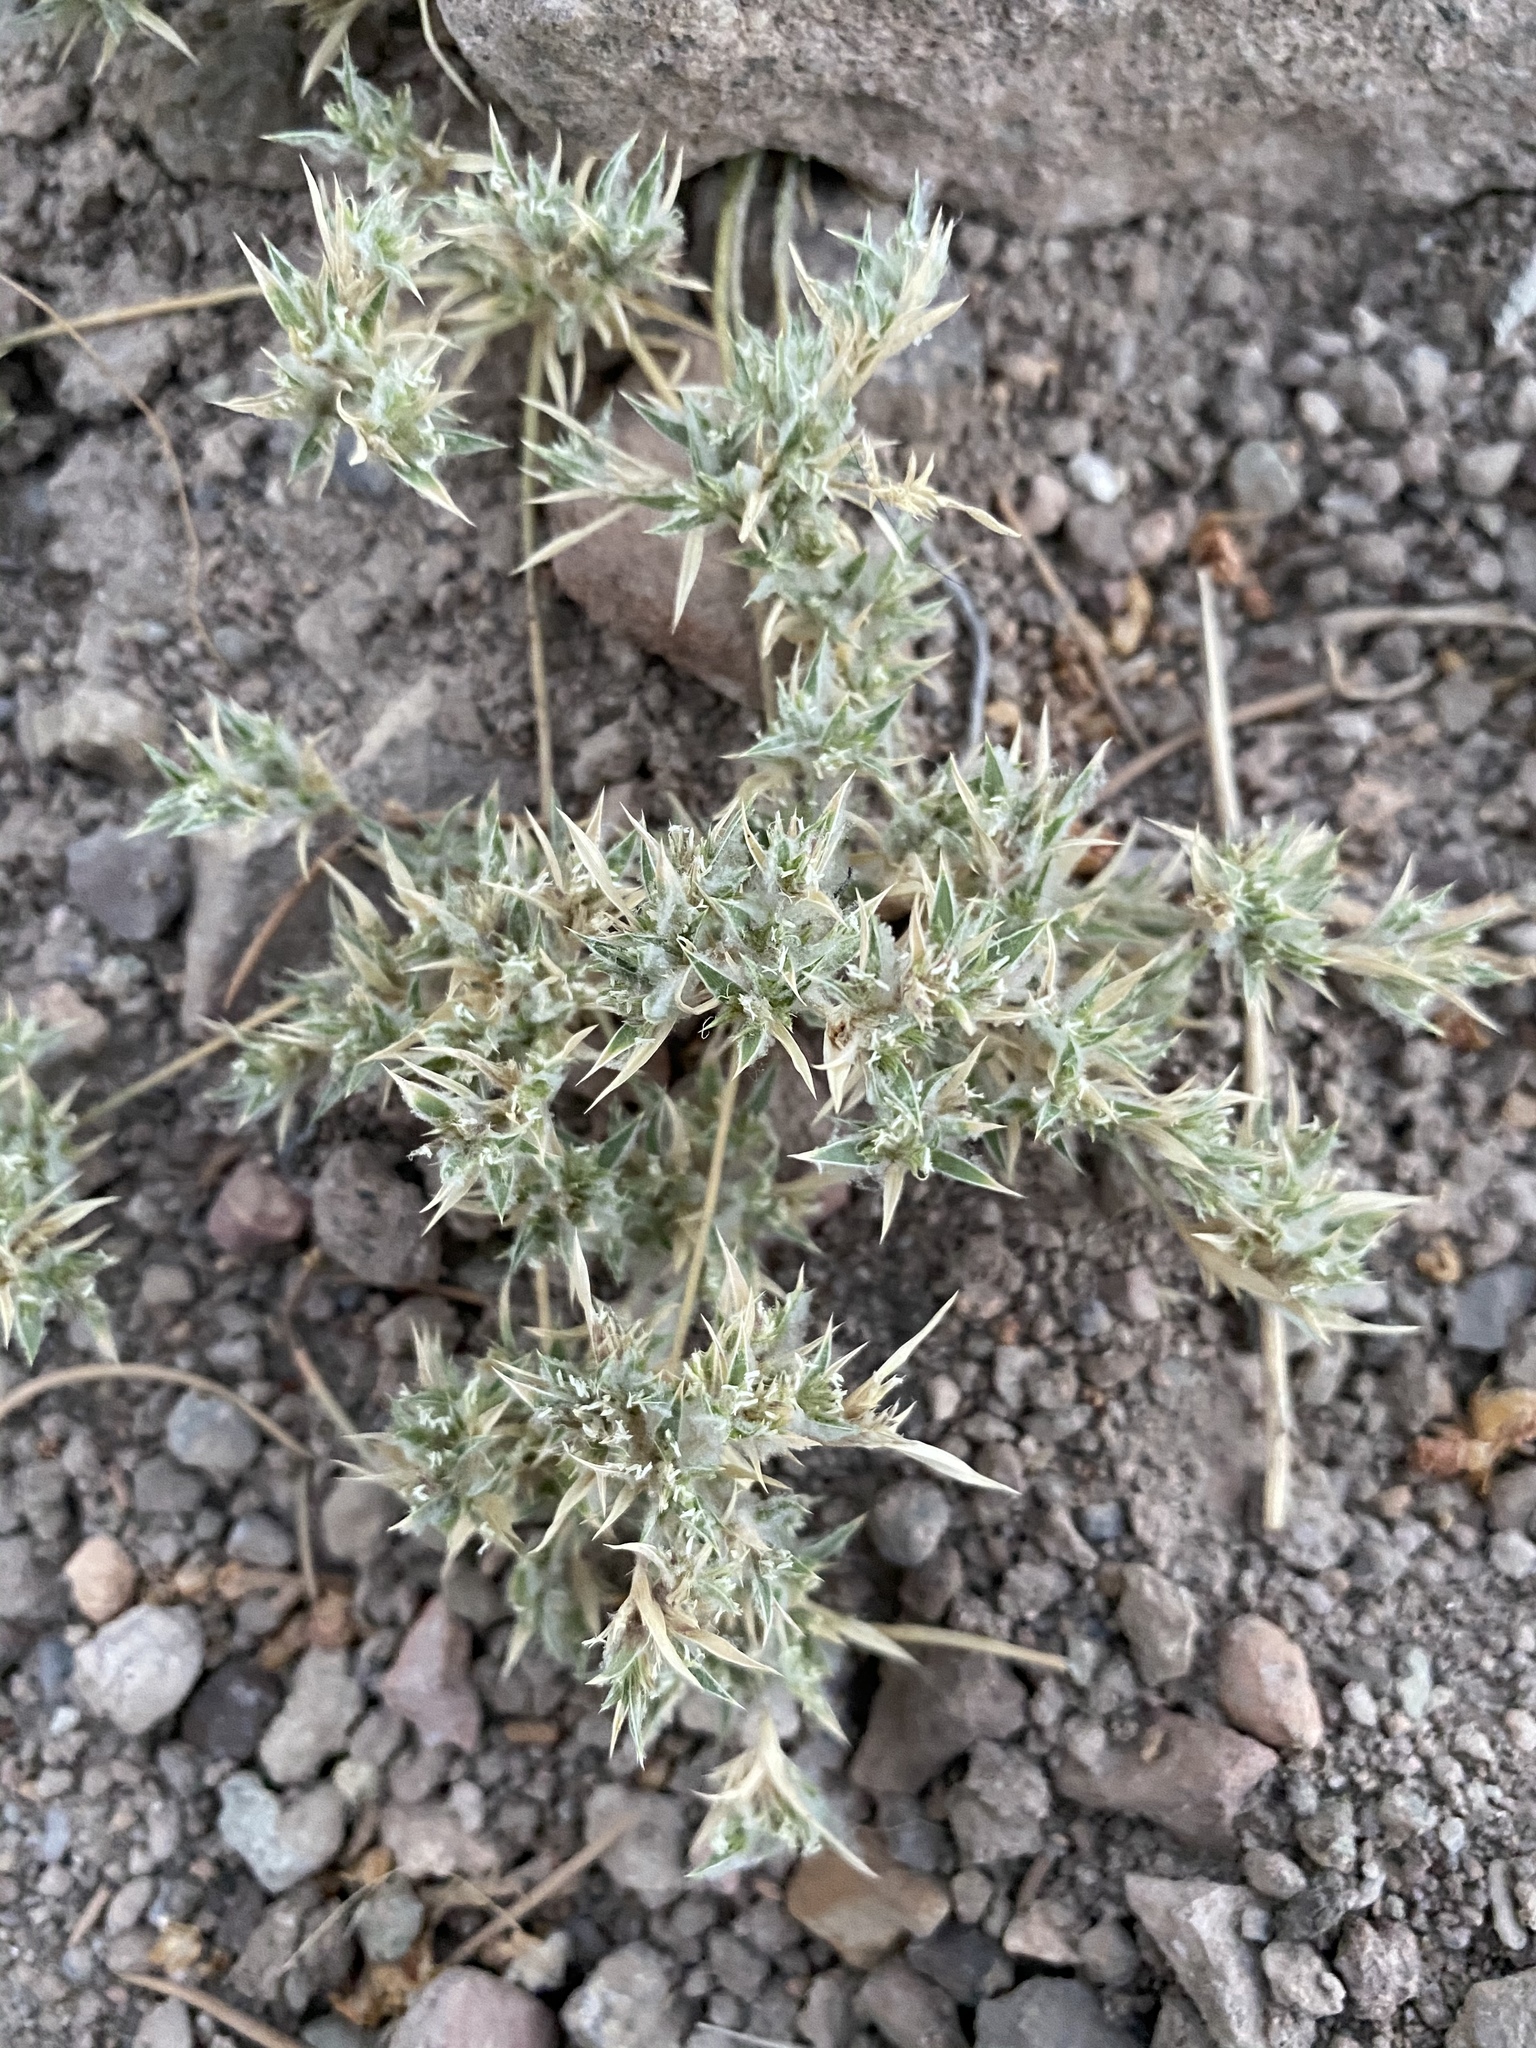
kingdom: Plantae
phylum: Tracheophyta
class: Liliopsida
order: Poales
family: Poaceae
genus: Munroa
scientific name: Munroa squarrosa
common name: False buffalo grass
